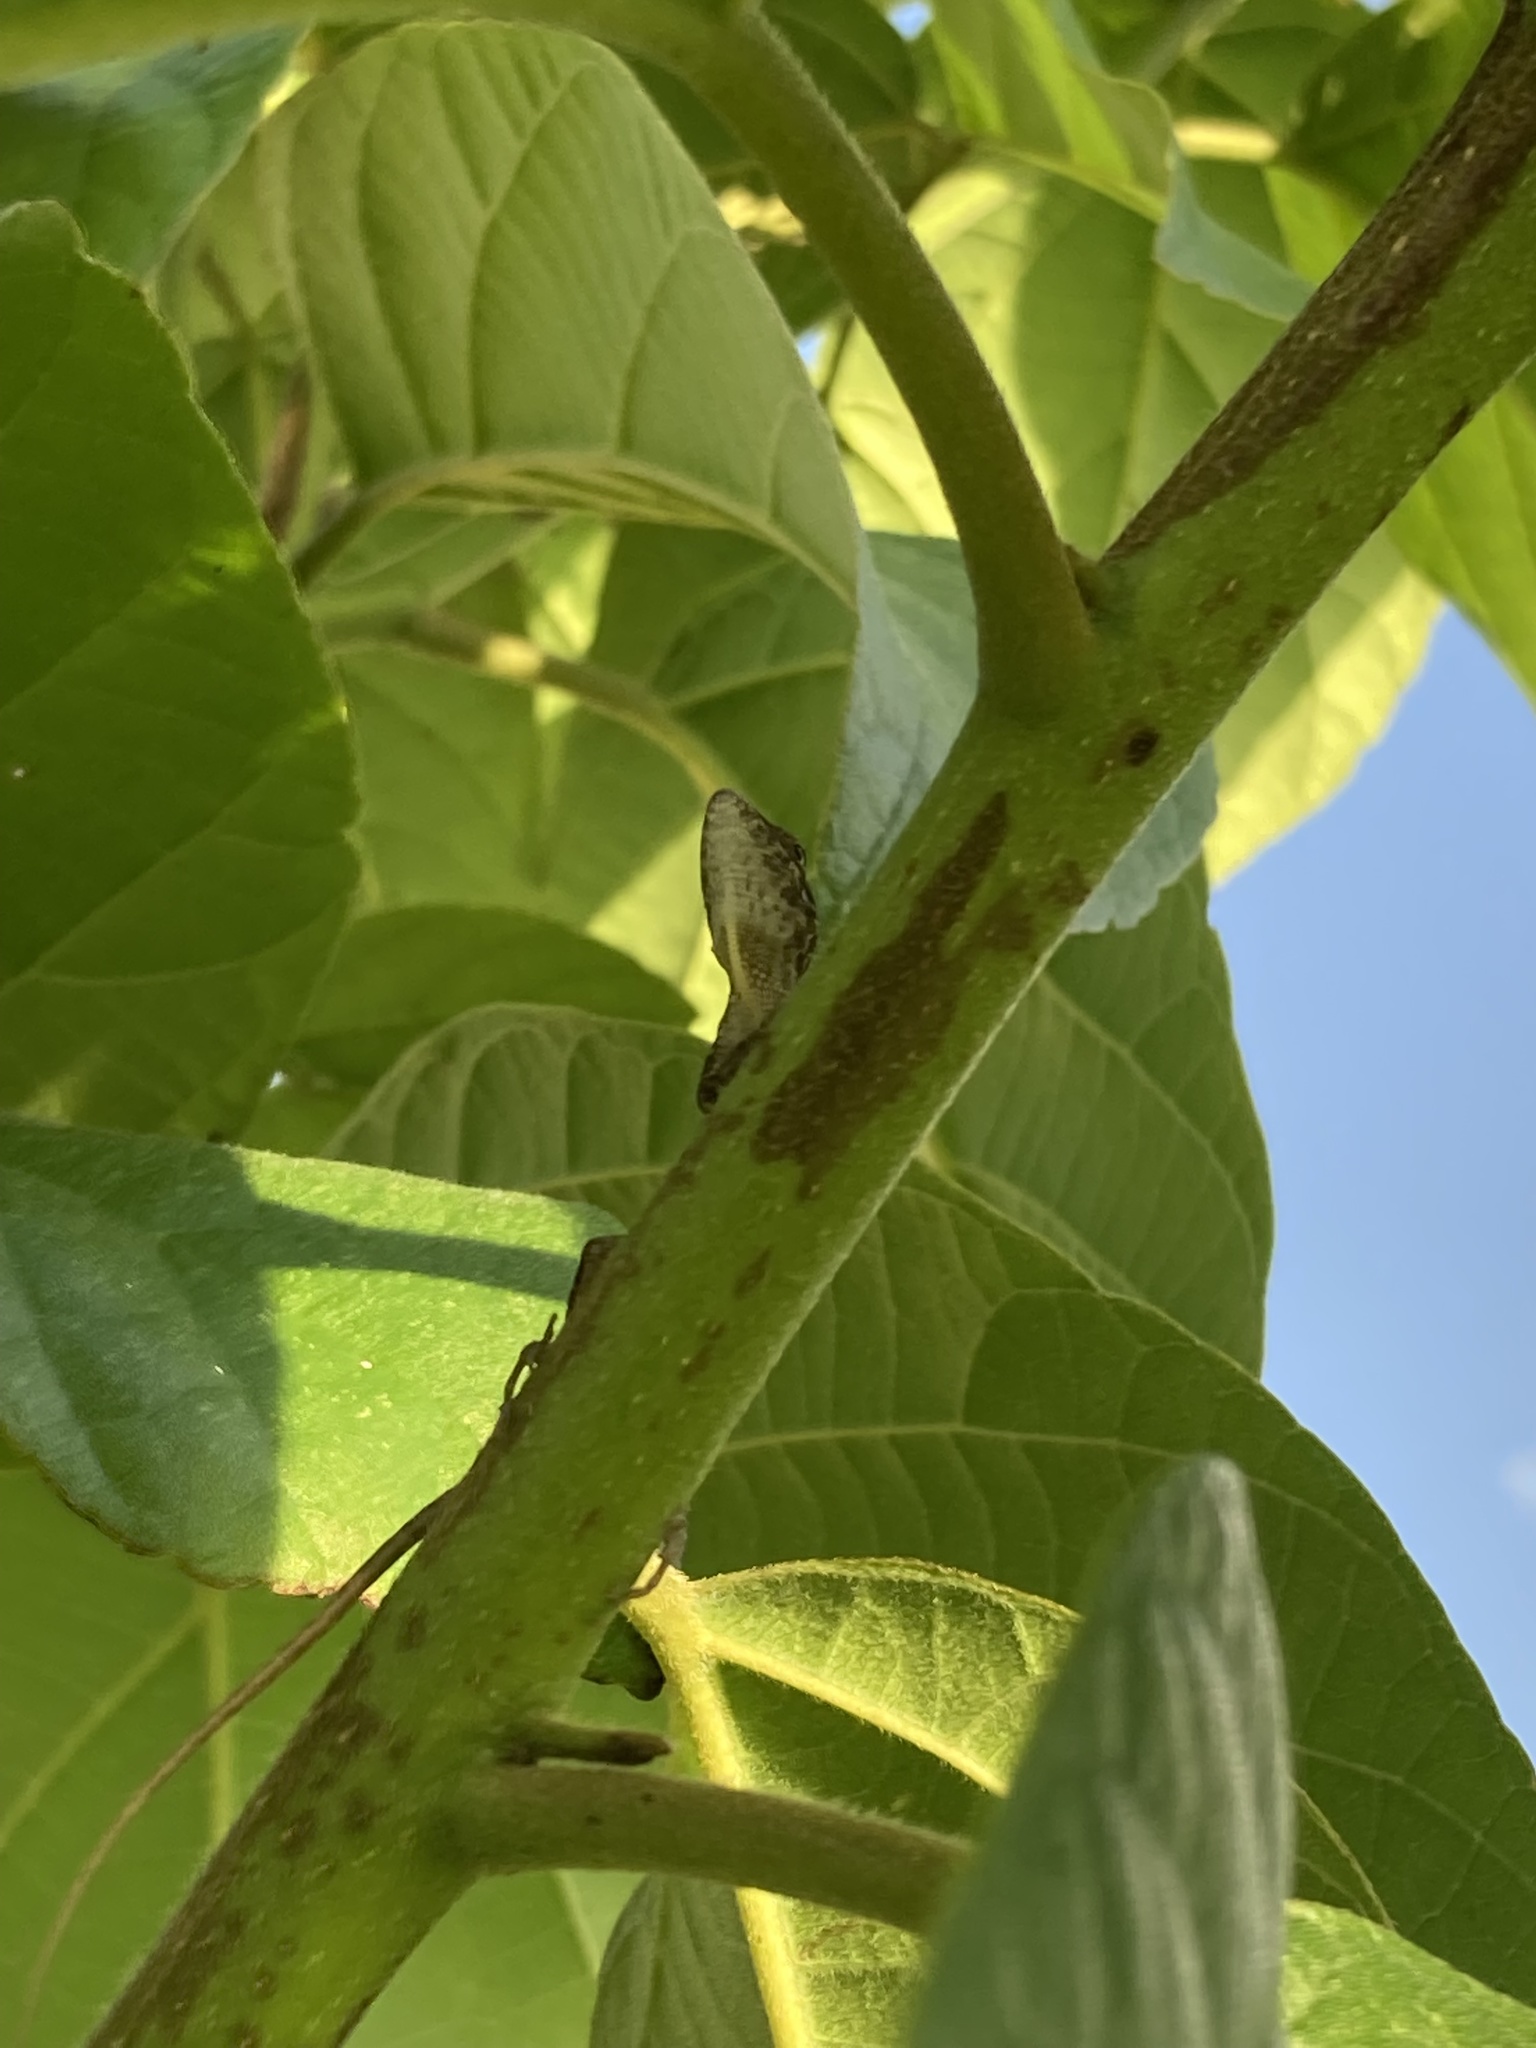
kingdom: Animalia
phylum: Chordata
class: Squamata
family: Dactyloidae
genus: Anolis
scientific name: Anolis sagrei
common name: Brown anole
